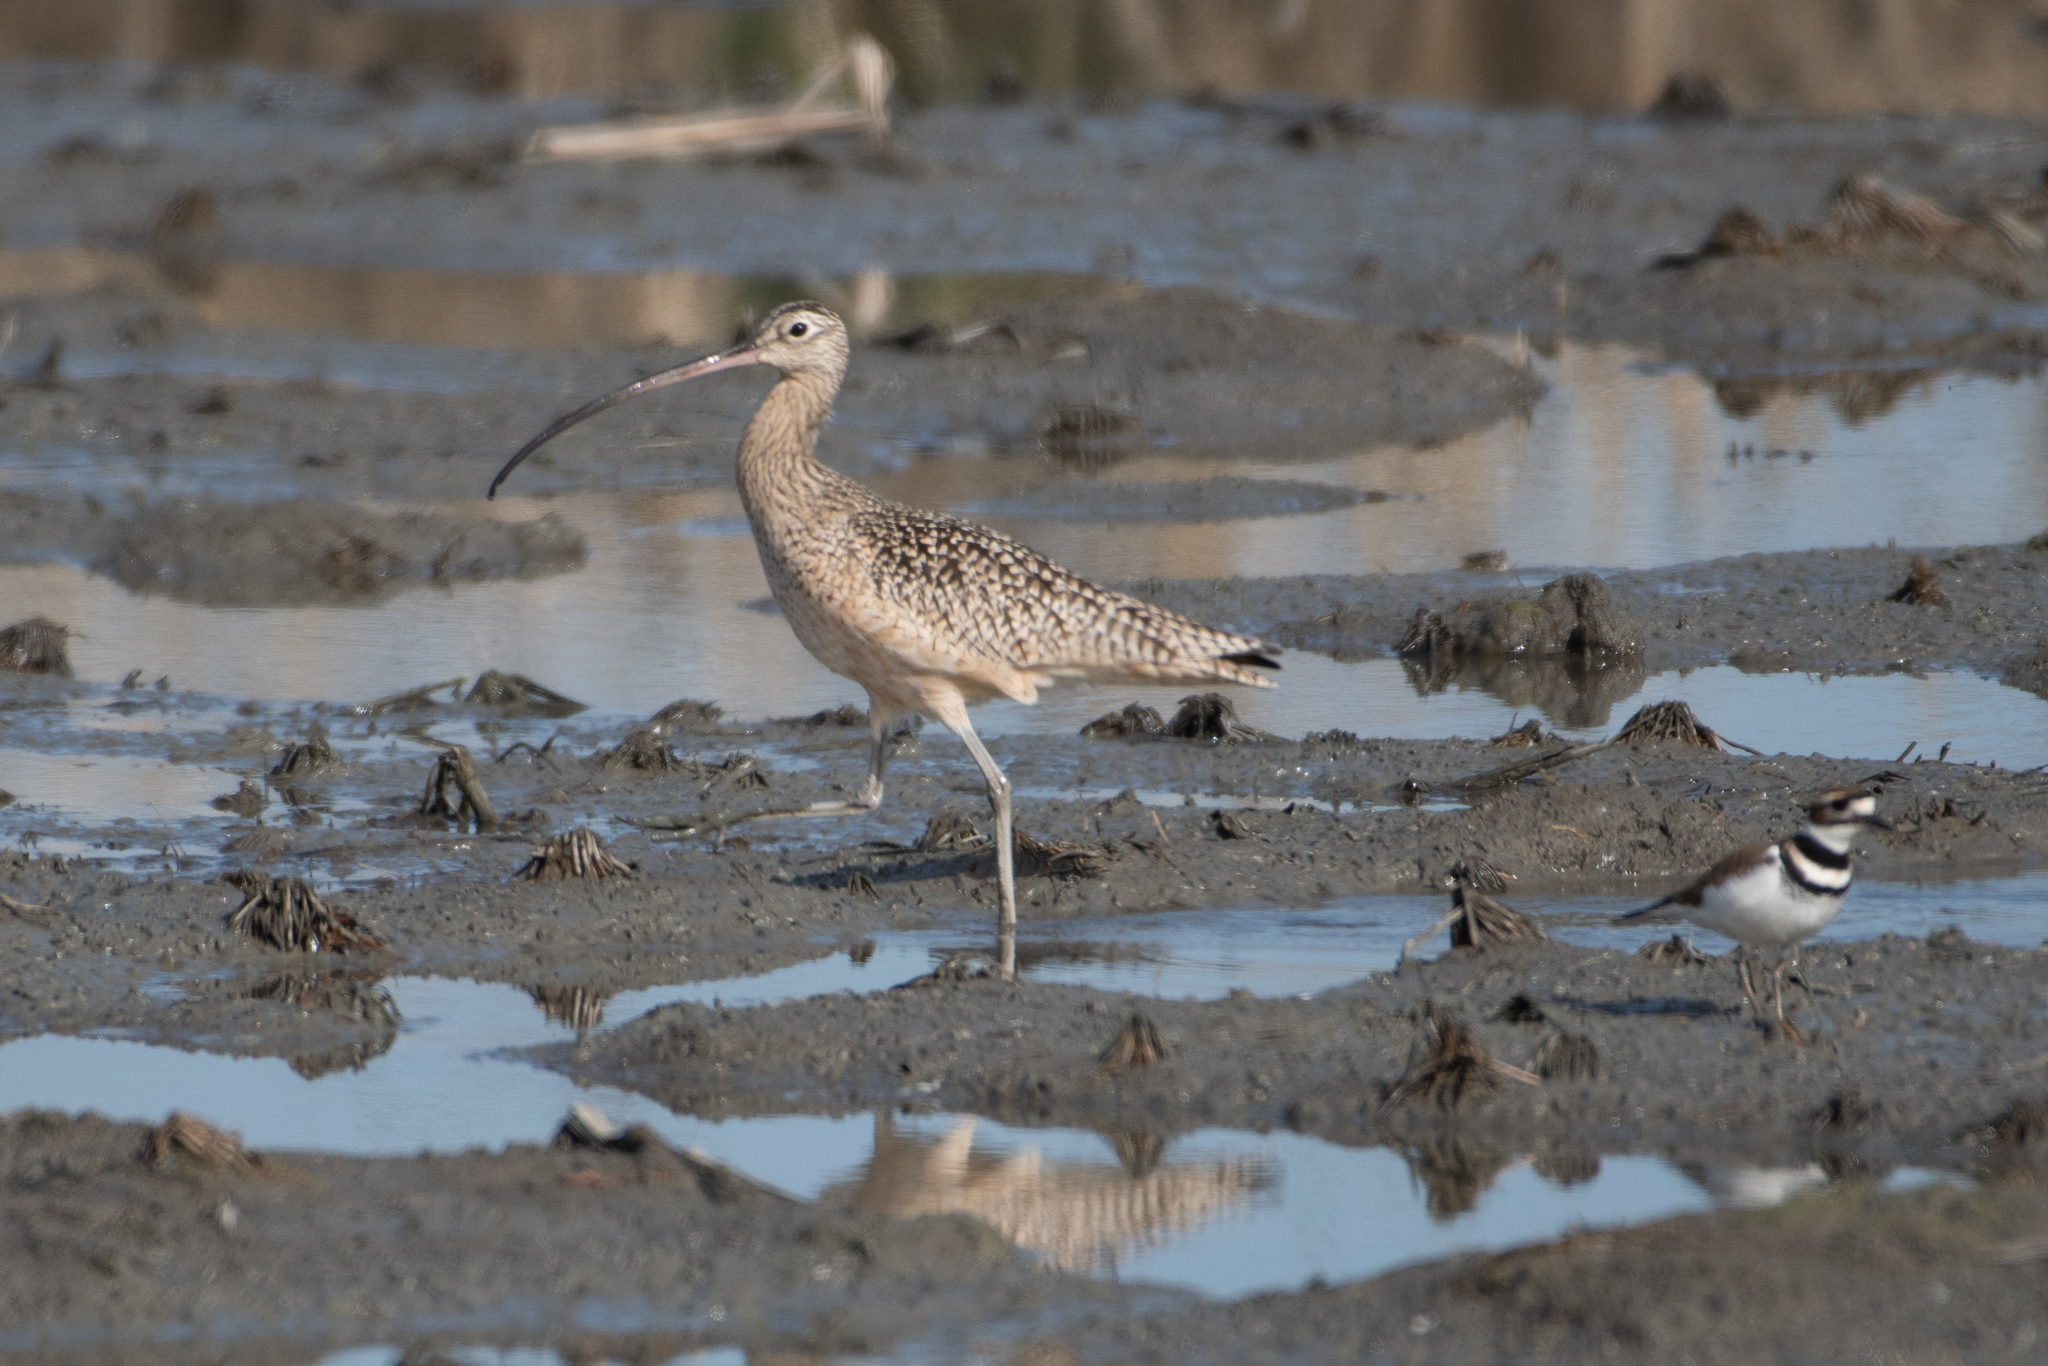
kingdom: Animalia
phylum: Chordata
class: Aves
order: Charadriiformes
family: Scolopacidae
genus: Numenius
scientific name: Numenius americanus
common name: Long-billed curlew
